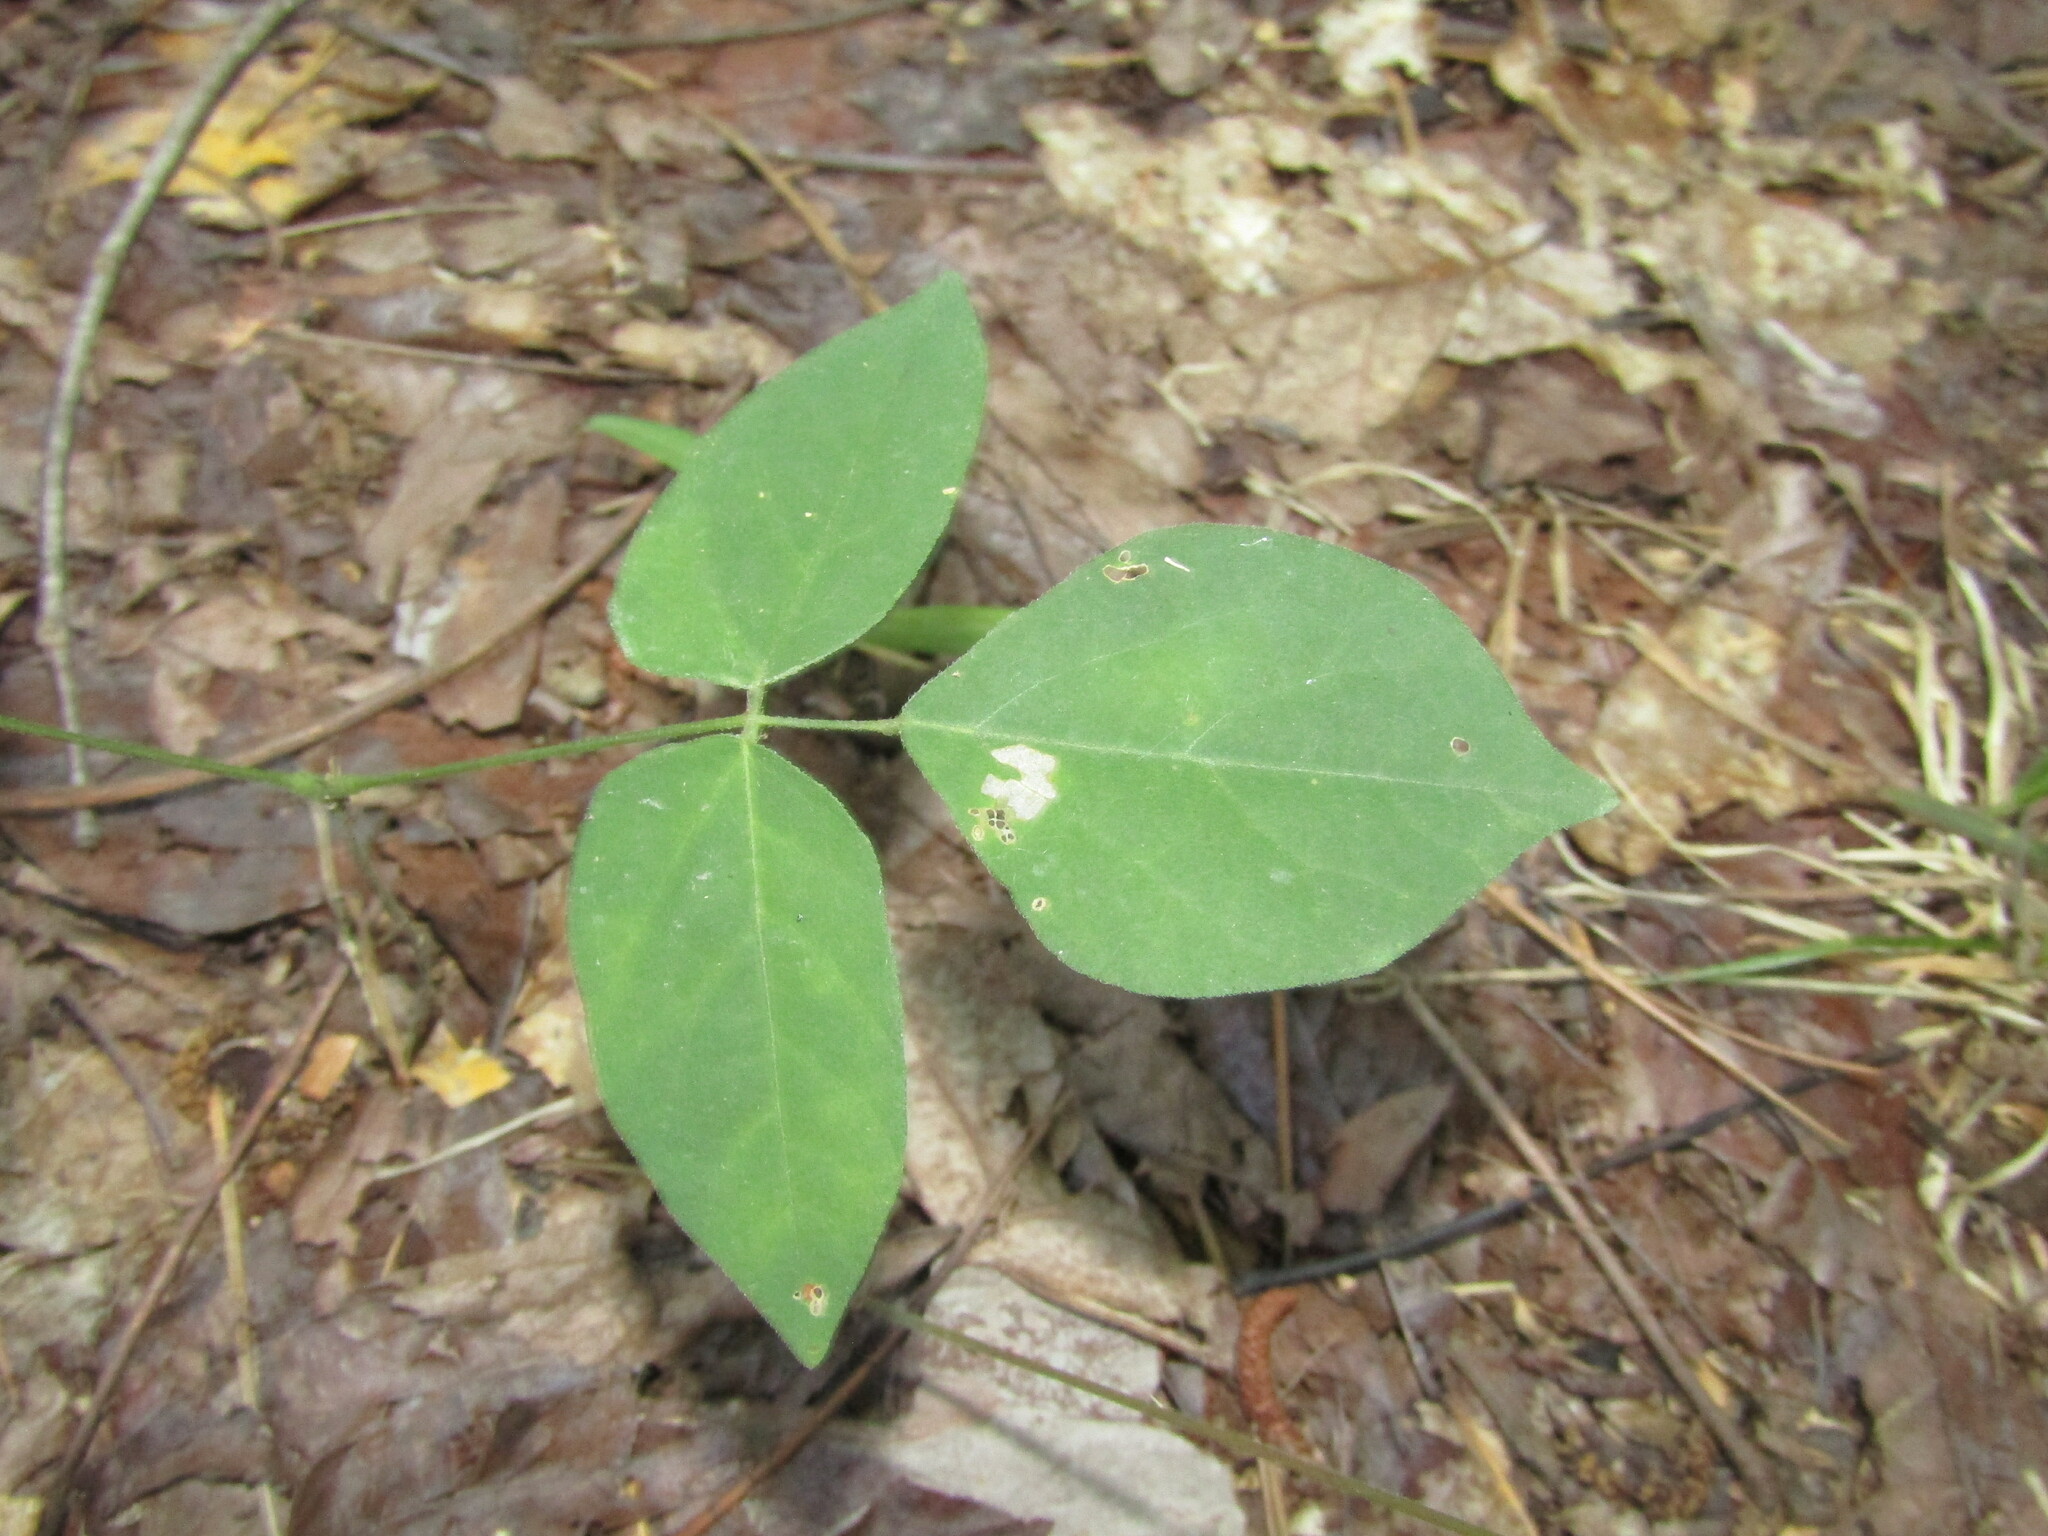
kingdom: Plantae
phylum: Tracheophyta
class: Magnoliopsida
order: Fabales
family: Fabaceae
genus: Hylodesmum
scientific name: Hylodesmum nudiflorum
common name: Bare-stemmed tick-trefoil
